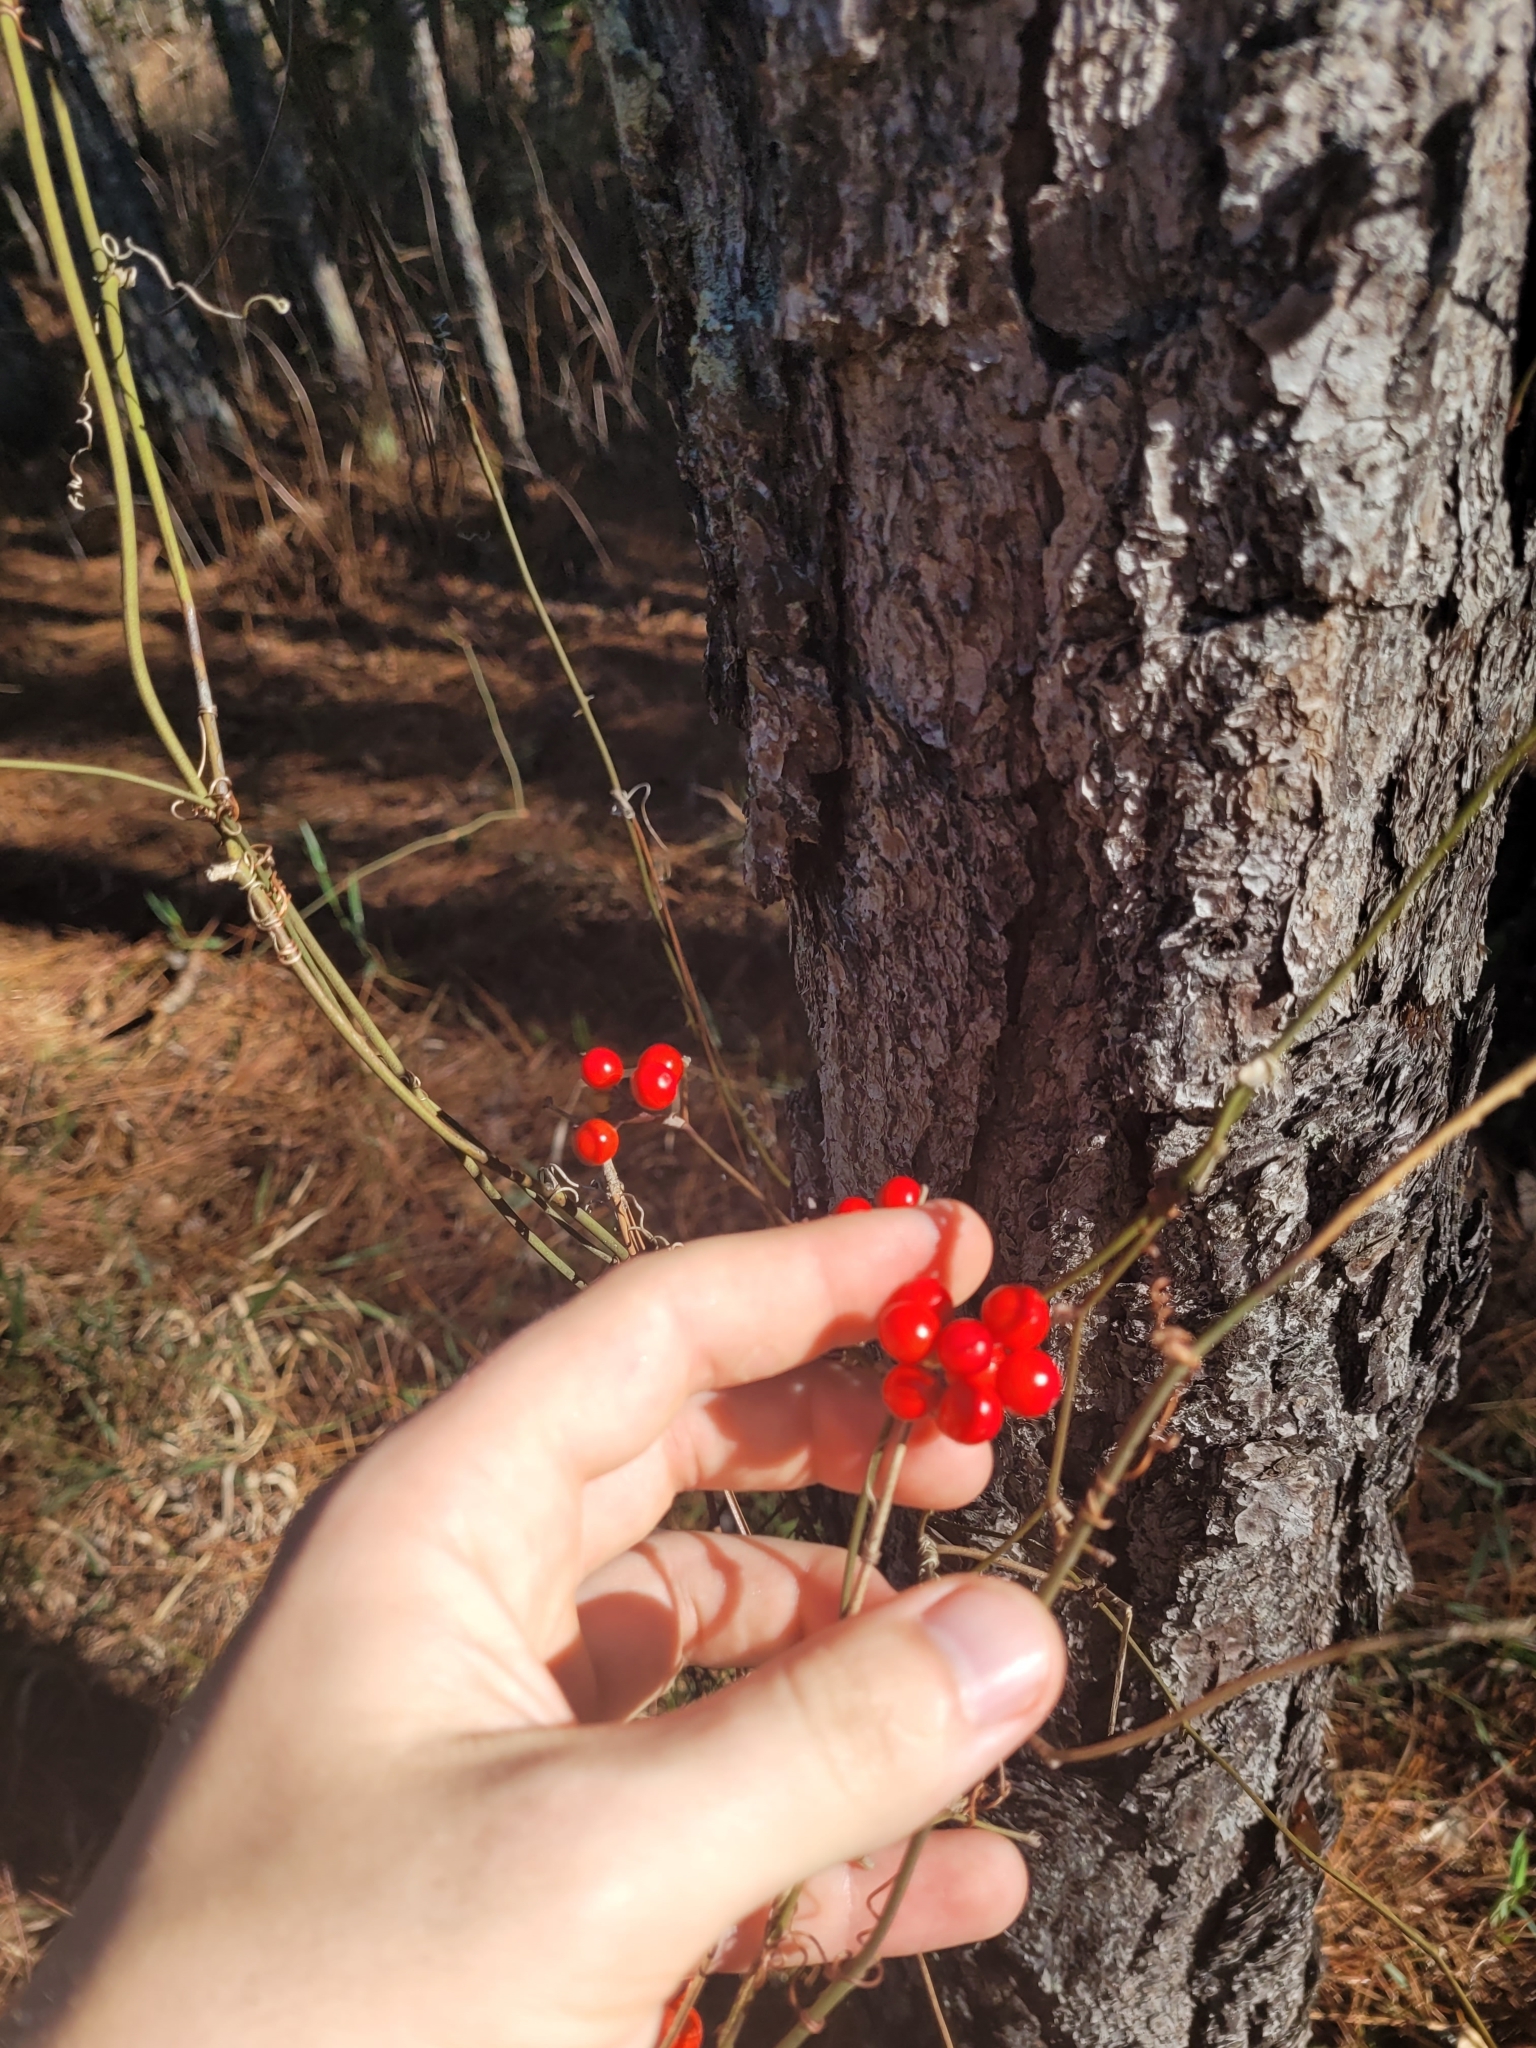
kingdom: Plantae
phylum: Tracheophyta
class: Liliopsida
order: Liliales
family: Smilacaceae
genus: Smilax
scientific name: Smilax walteri
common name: Coral greenbrier
